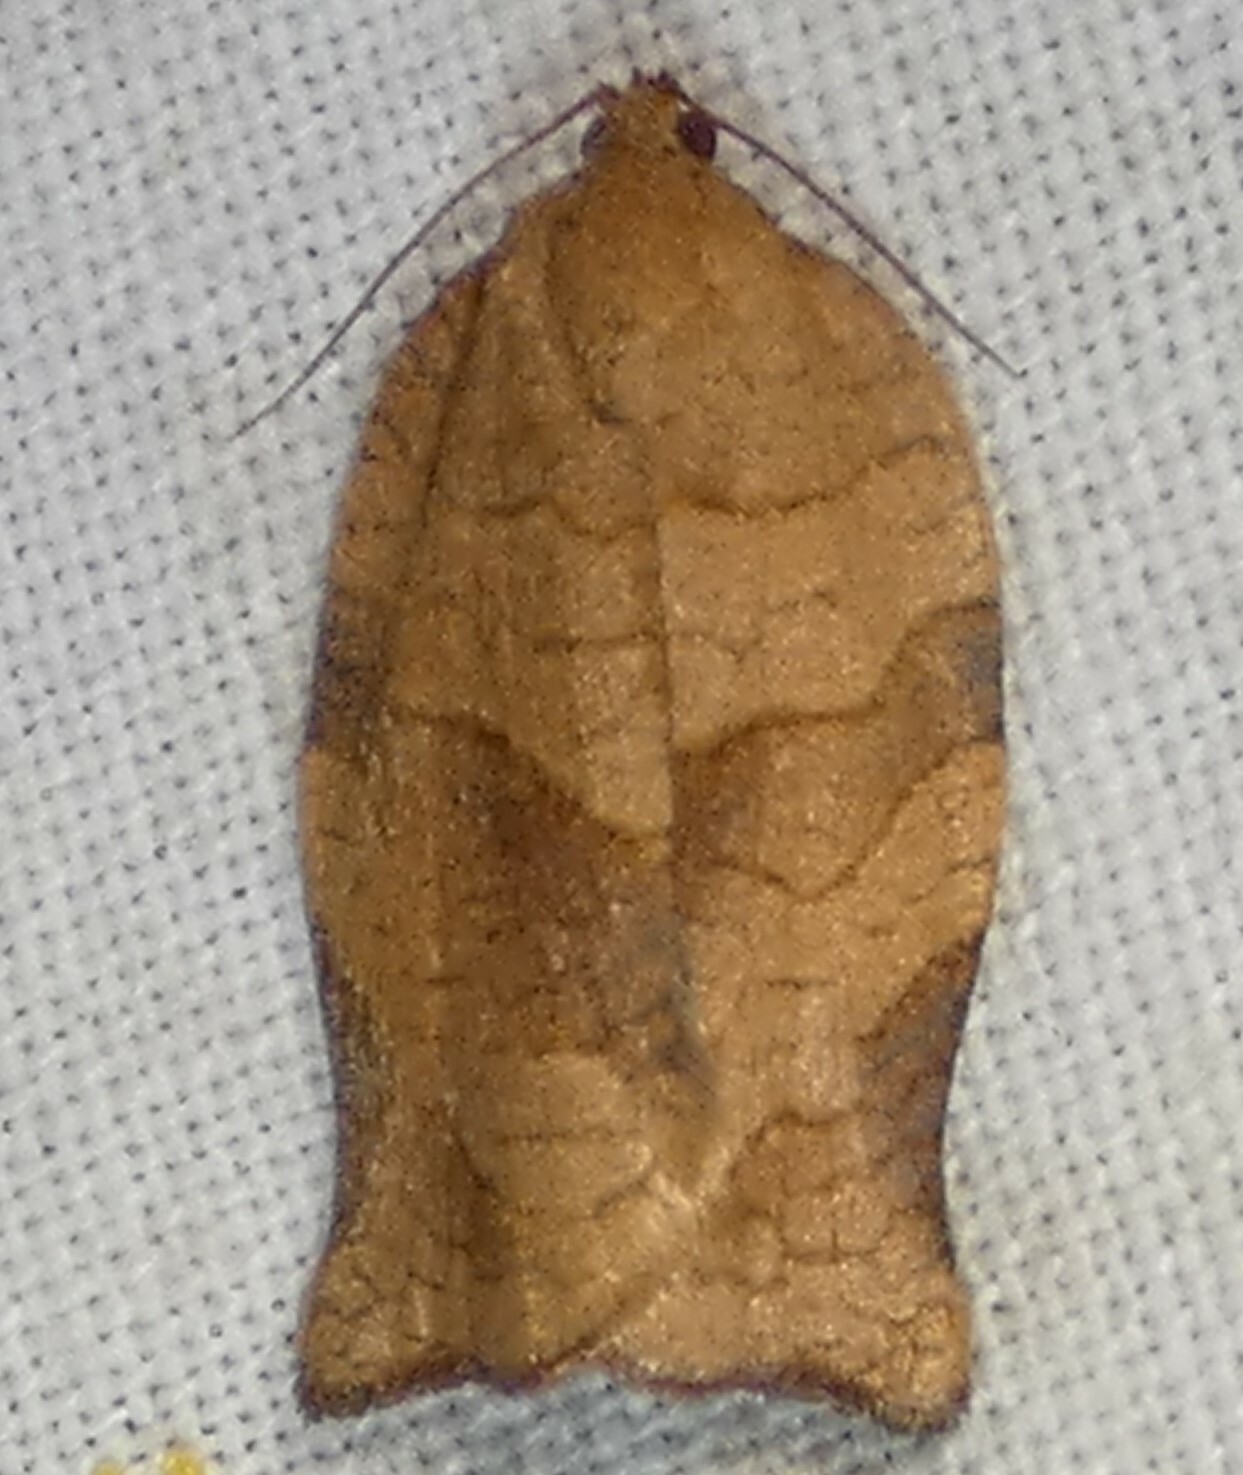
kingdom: Animalia
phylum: Arthropoda
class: Insecta
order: Lepidoptera
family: Tortricidae
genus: Choristoneura
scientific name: Choristoneura rosaceana
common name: Oblique-banded leafroller moth
